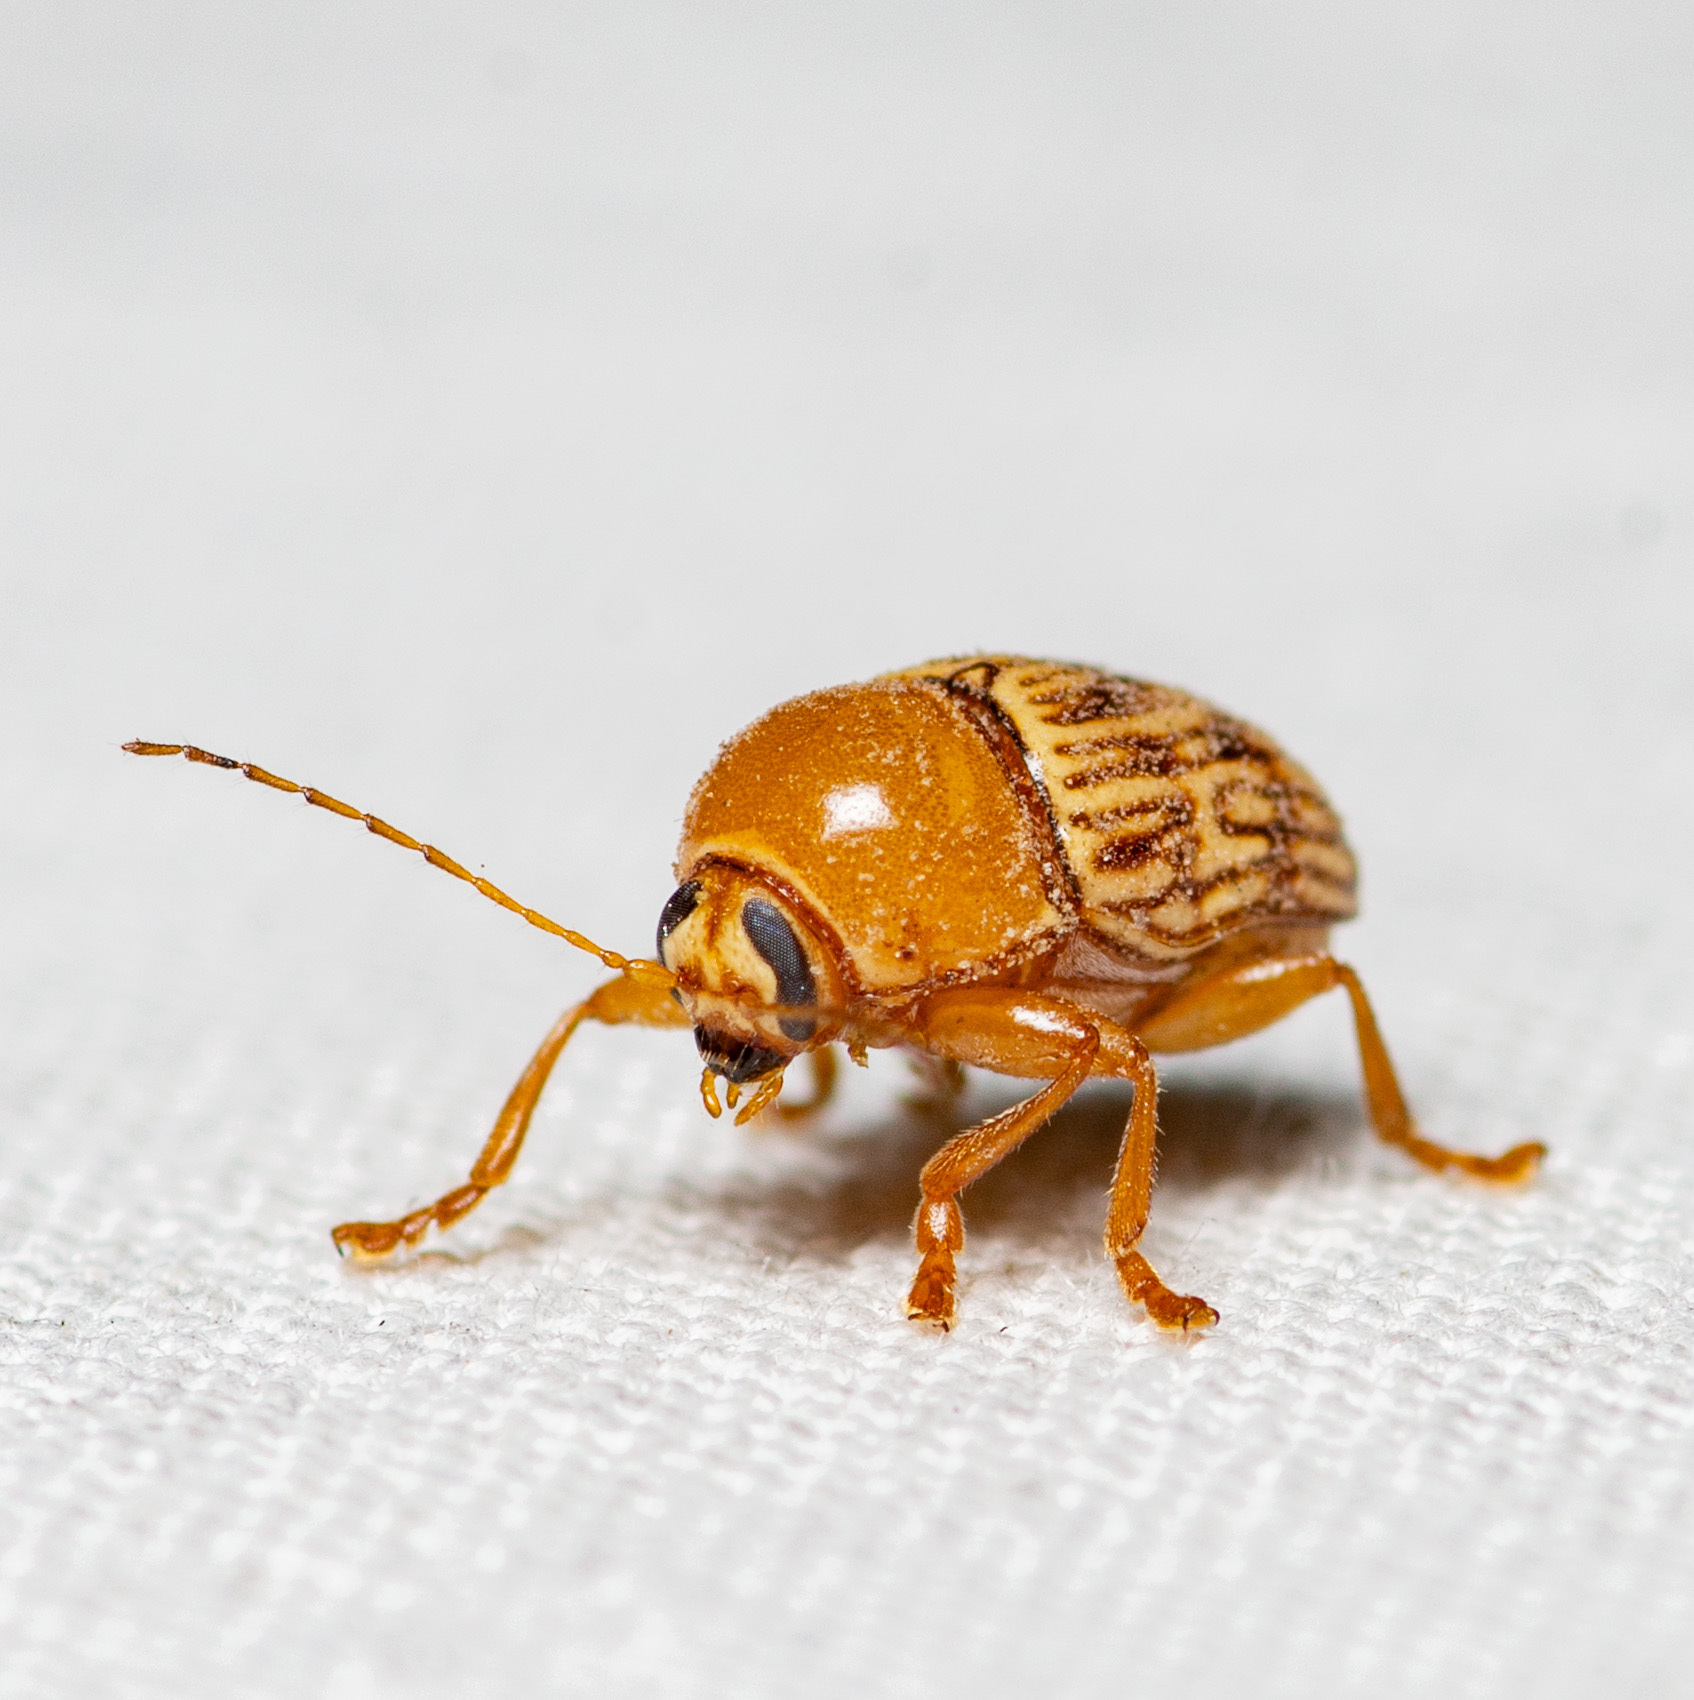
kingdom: Animalia
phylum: Arthropoda
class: Insecta
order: Coleoptera
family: Chrysomelidae
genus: Cryptocephalus
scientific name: Cryptocephalus fulguratus
